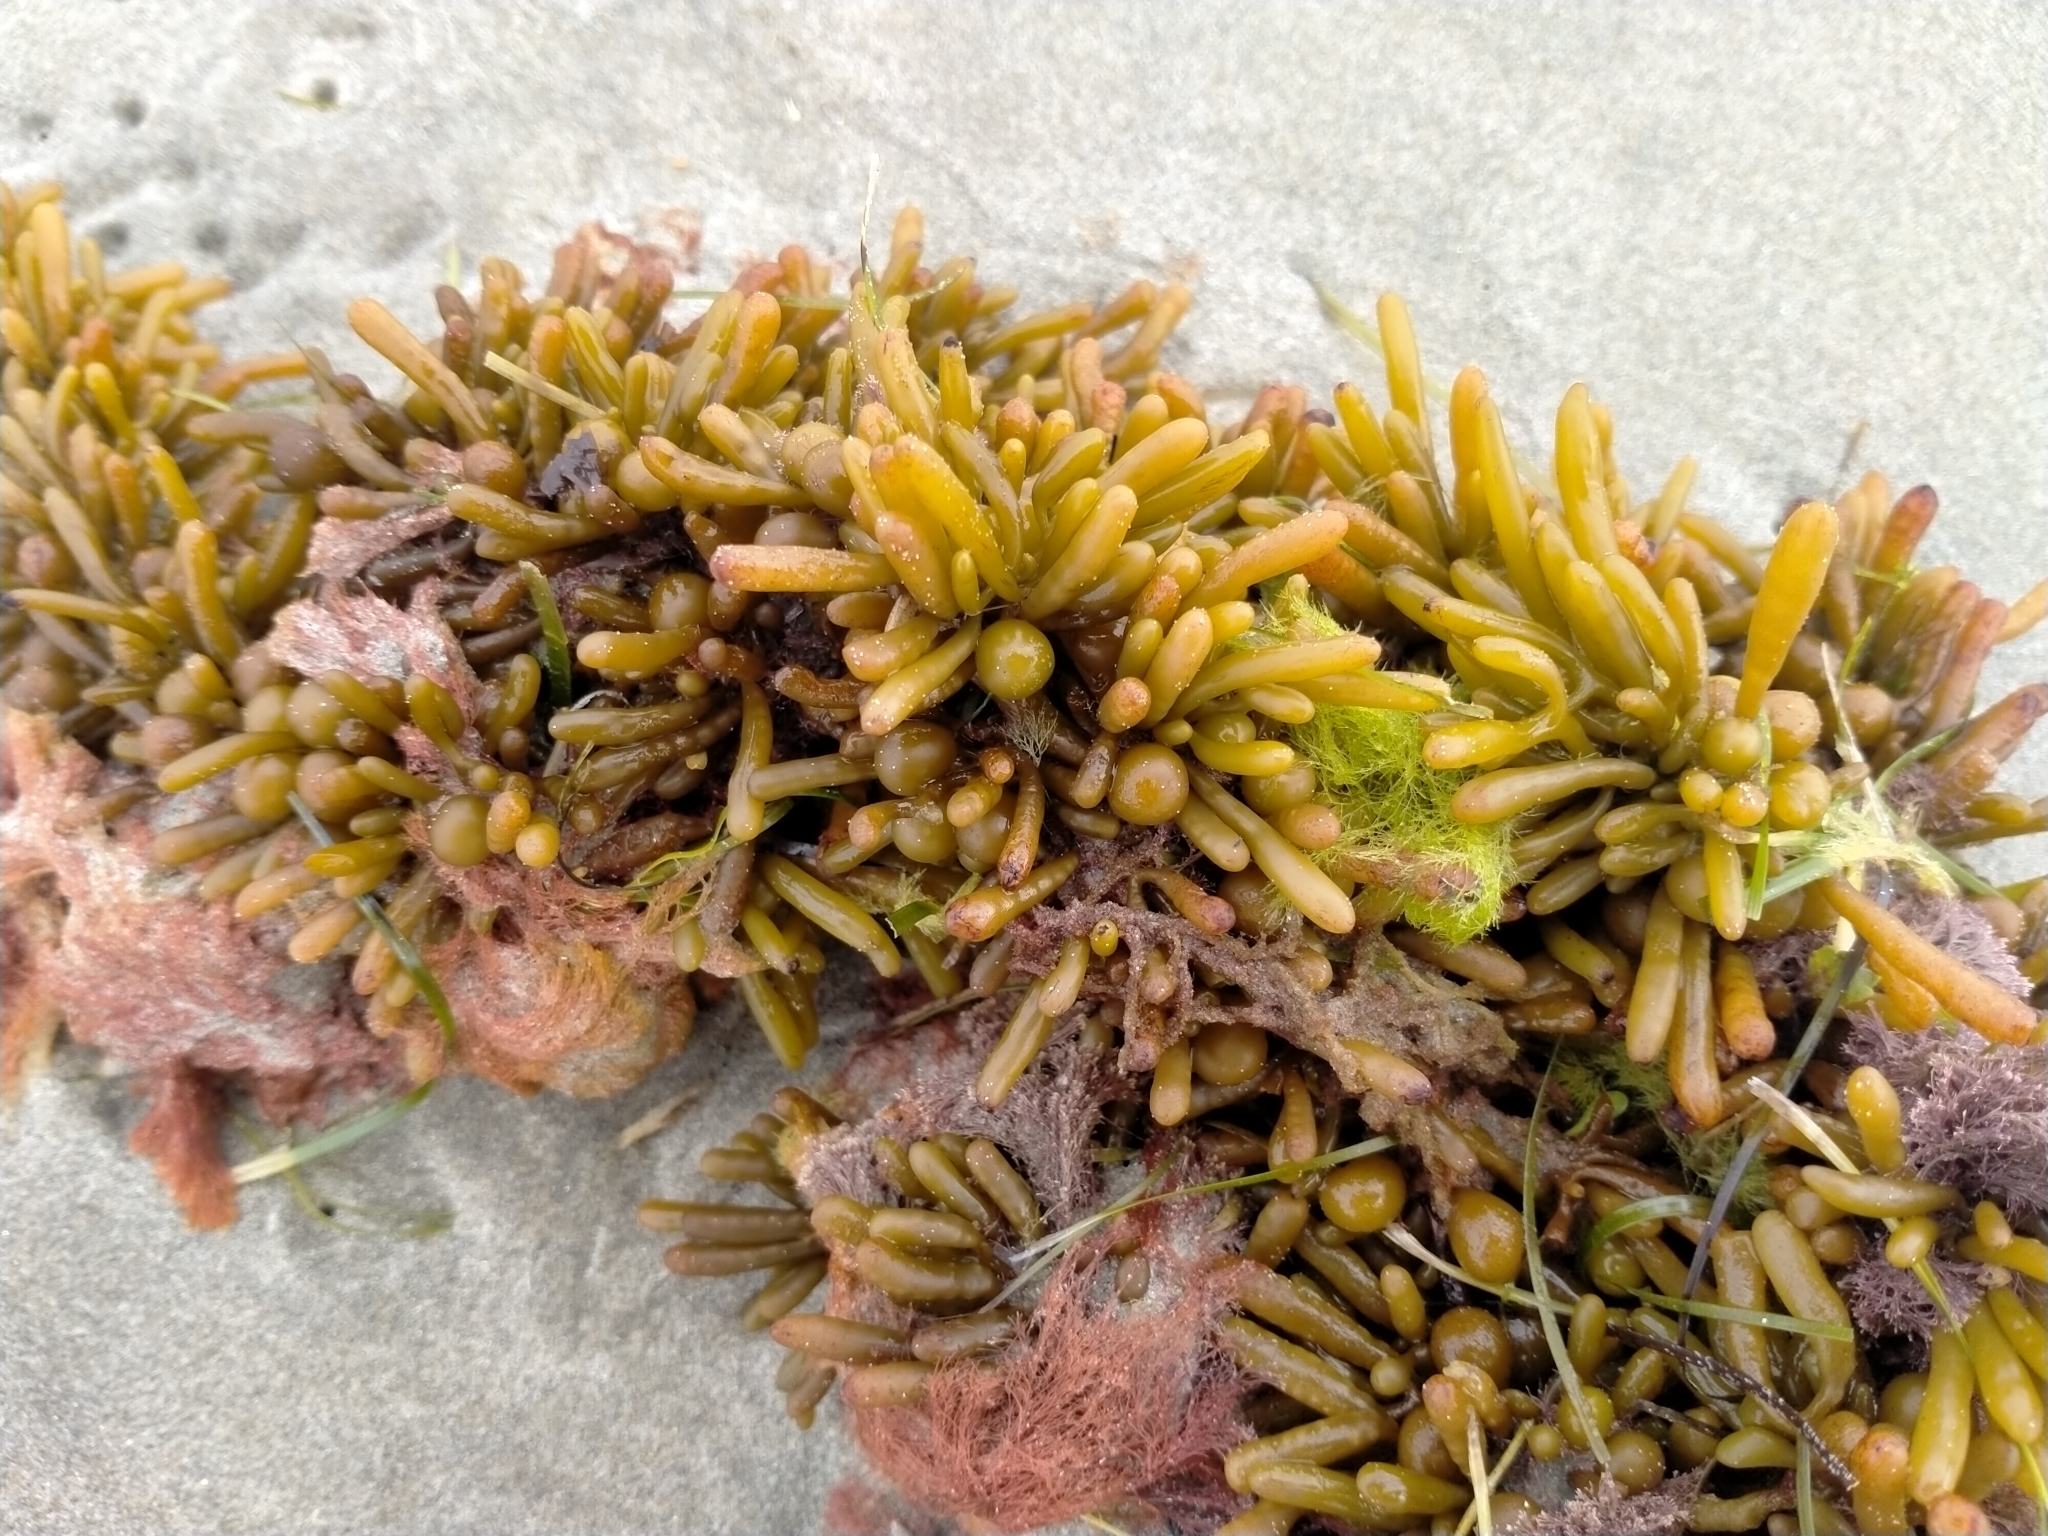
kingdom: Chromista
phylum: Ochrophyta
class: Phaeophyceae
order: Fucales
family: Sargassaceae
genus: Cystophora
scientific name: Cystophora torulosa
